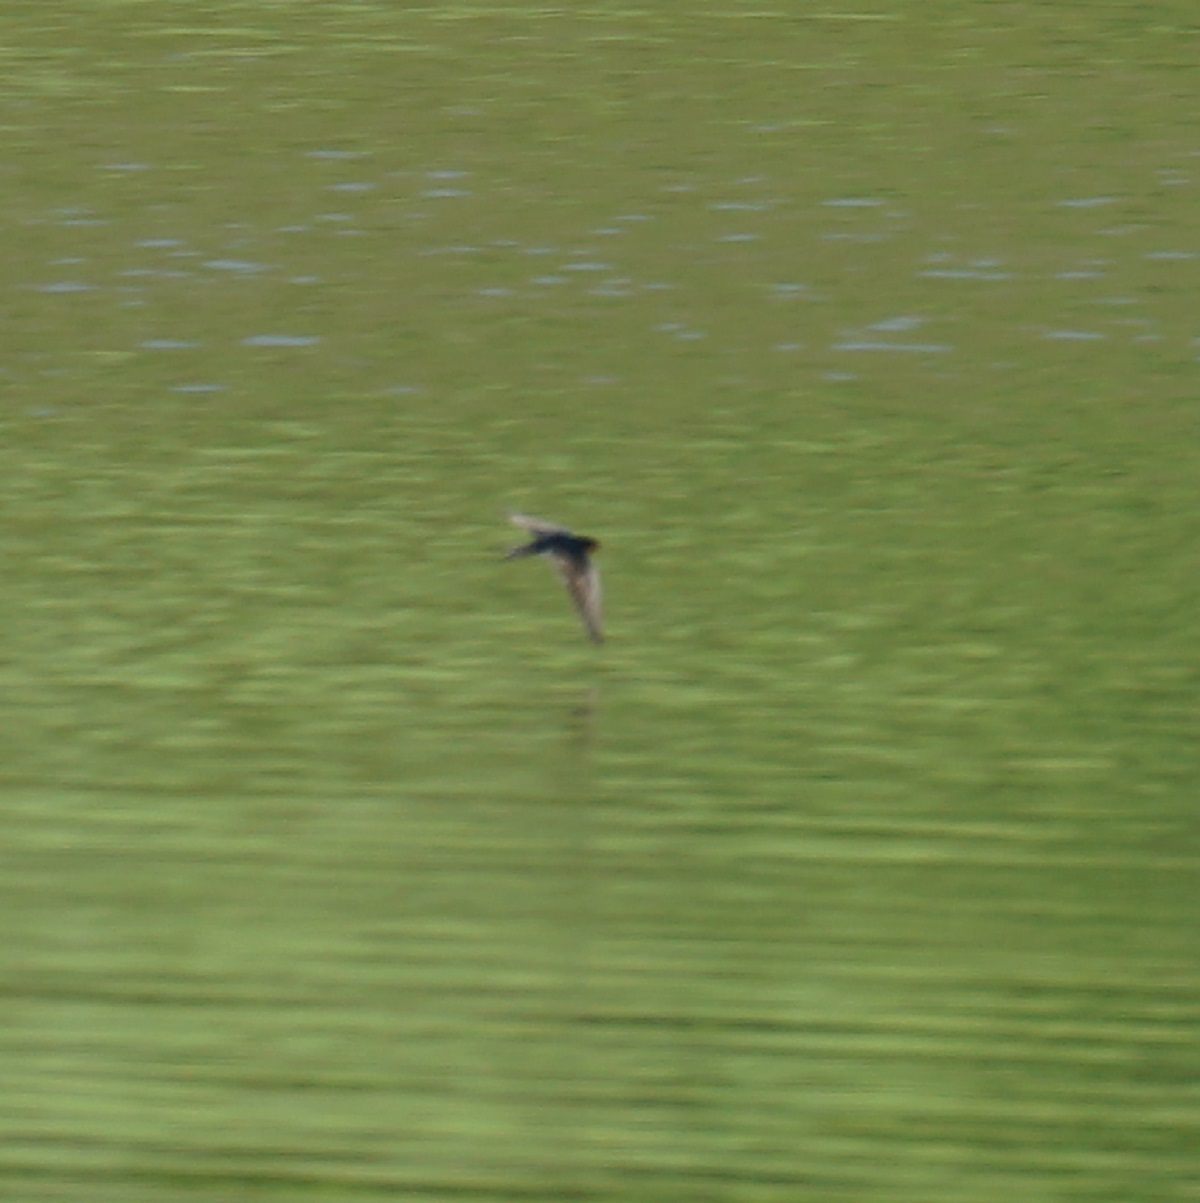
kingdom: Animalia
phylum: Chordata
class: Aves
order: Passeriformes
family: Hirundinidae
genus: Hirundo
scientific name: Hirundo neoxena
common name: Welcome swallow
